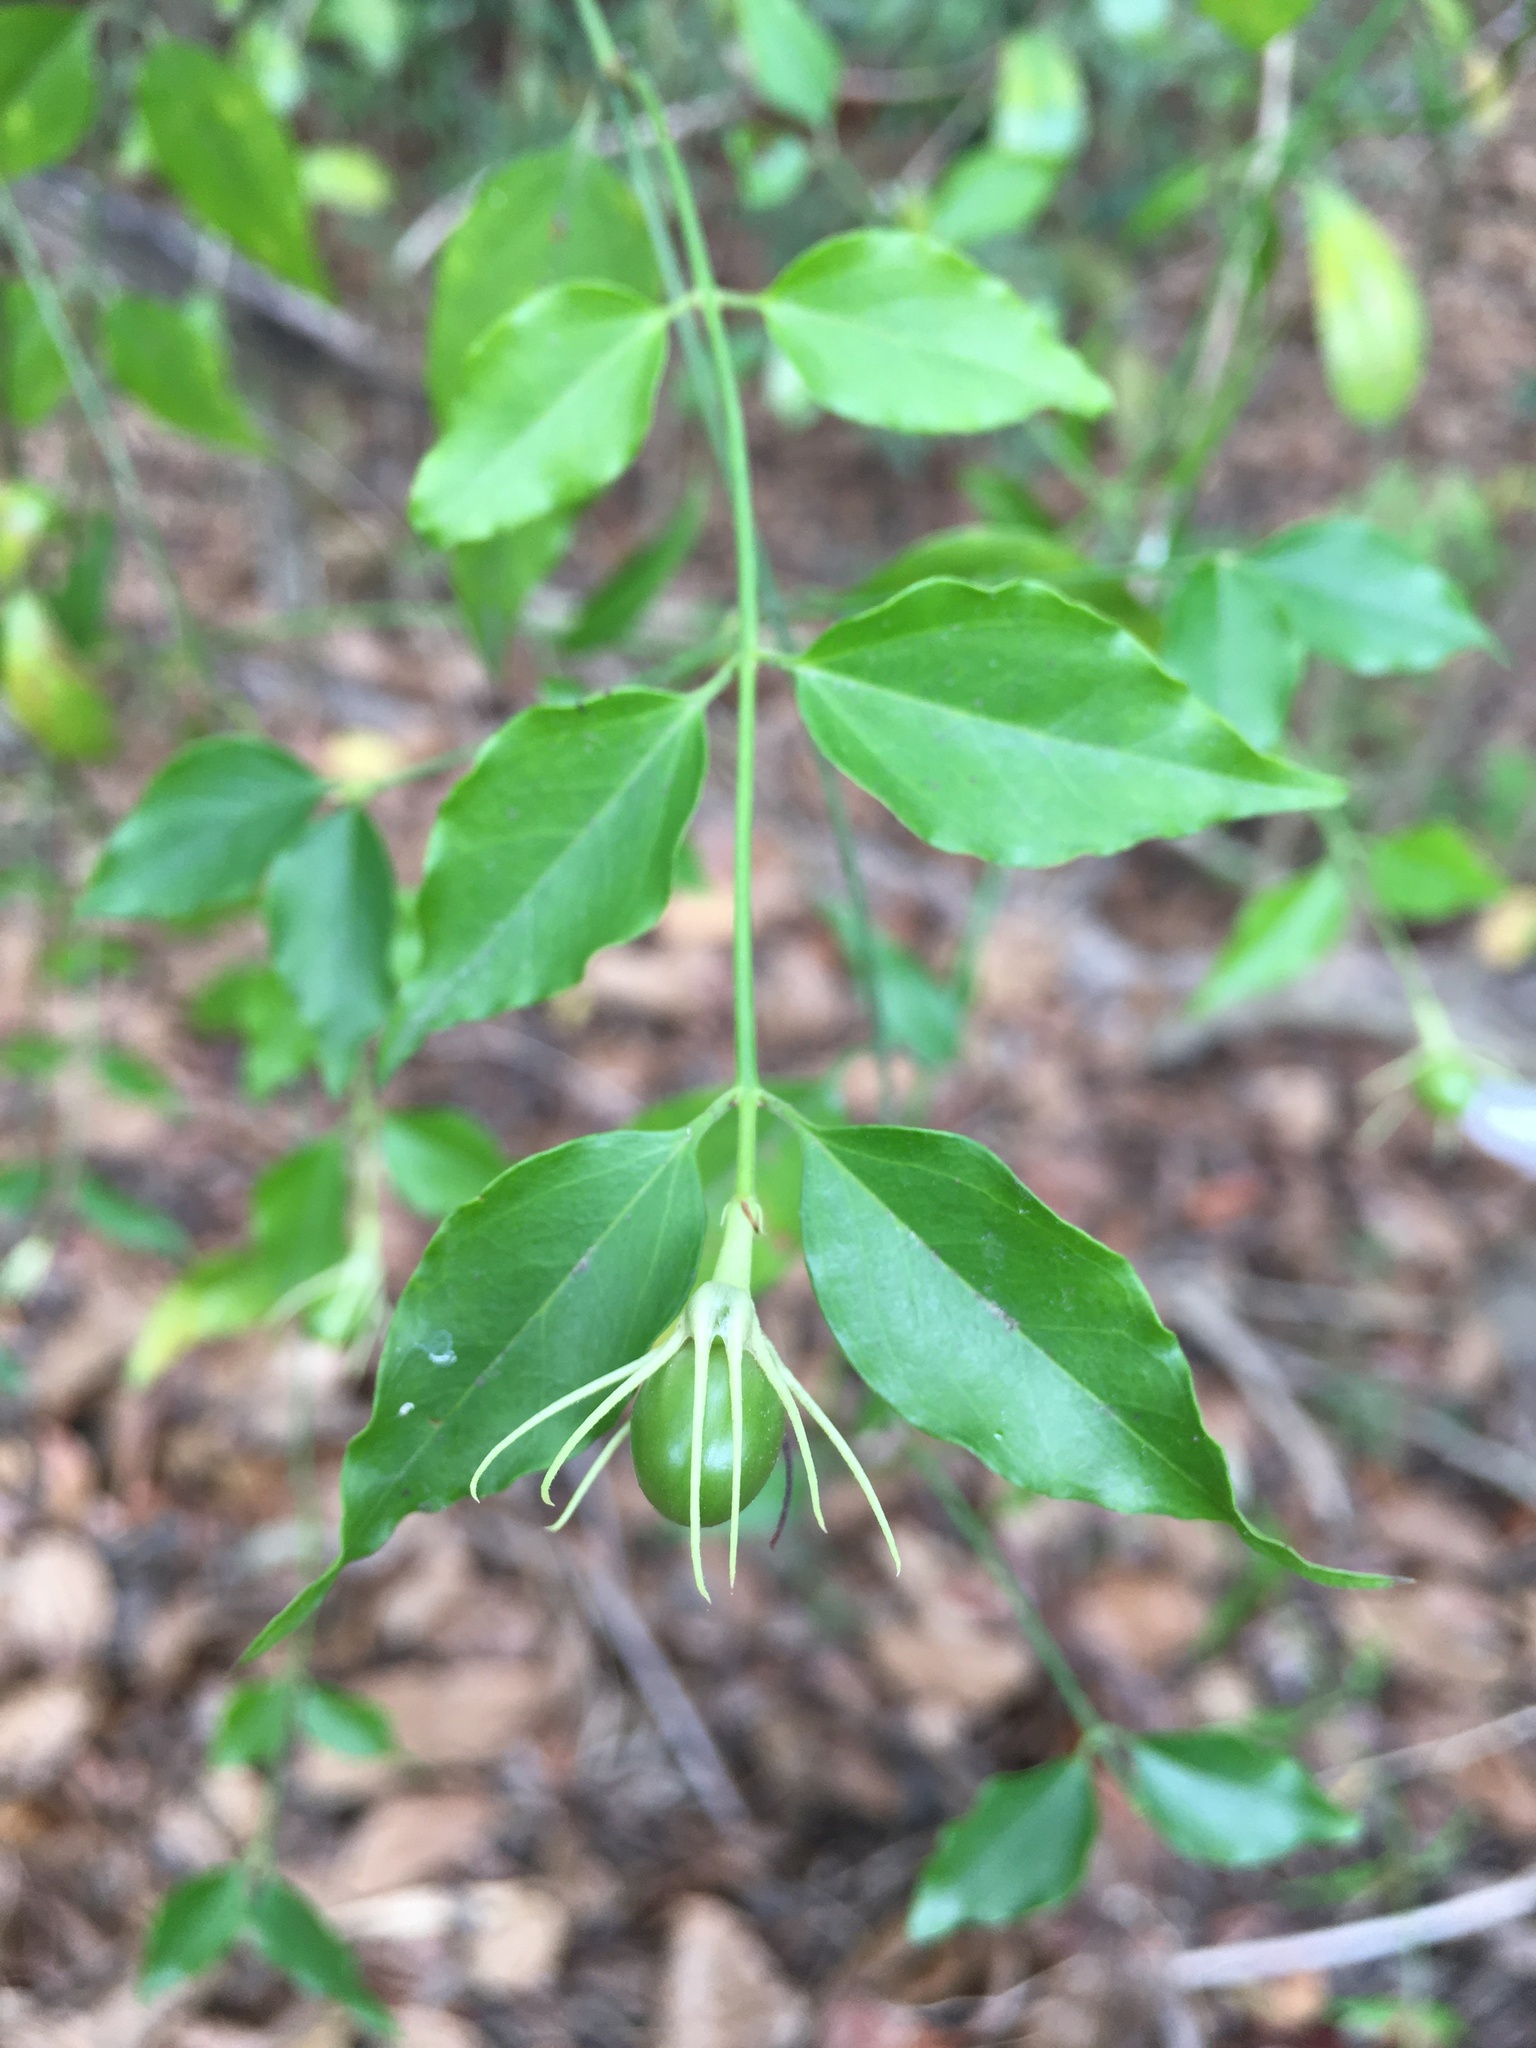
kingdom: Plantae
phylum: Tracheophyta
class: Magnoliopsida
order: Lamiales
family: Oleaceae
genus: Jasminum
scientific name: Jasminum nervosum
